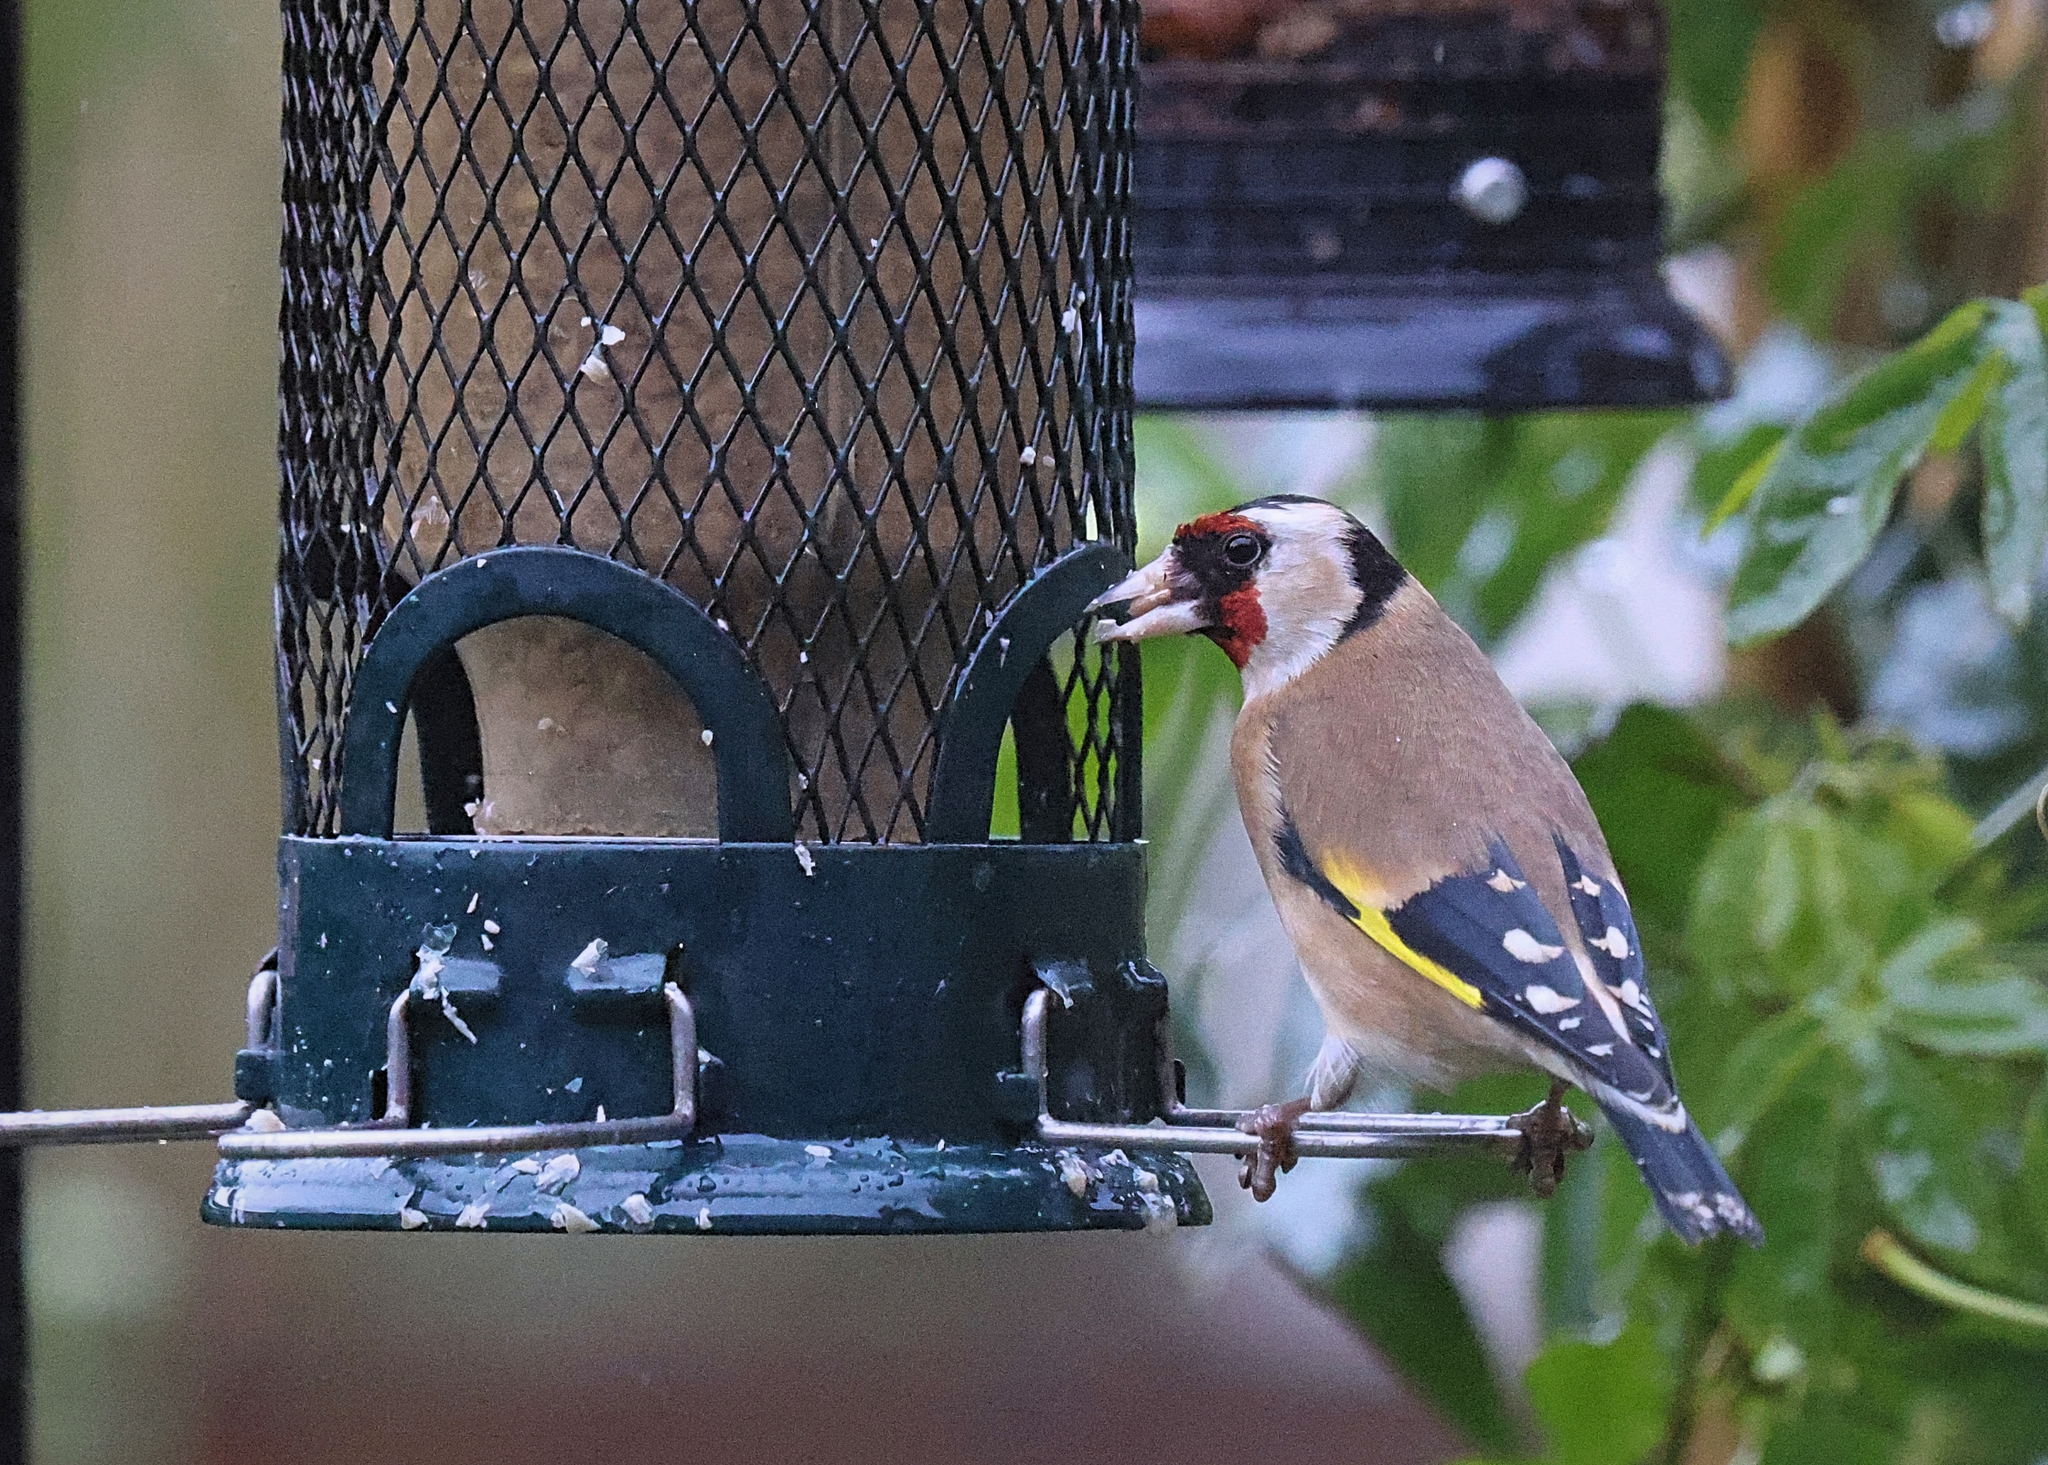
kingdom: Animalia
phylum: Chordata
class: Aves
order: Passeriformes
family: Fringillidae
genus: Carduelis
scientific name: Carduelis carduelis
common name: European goldfinch
